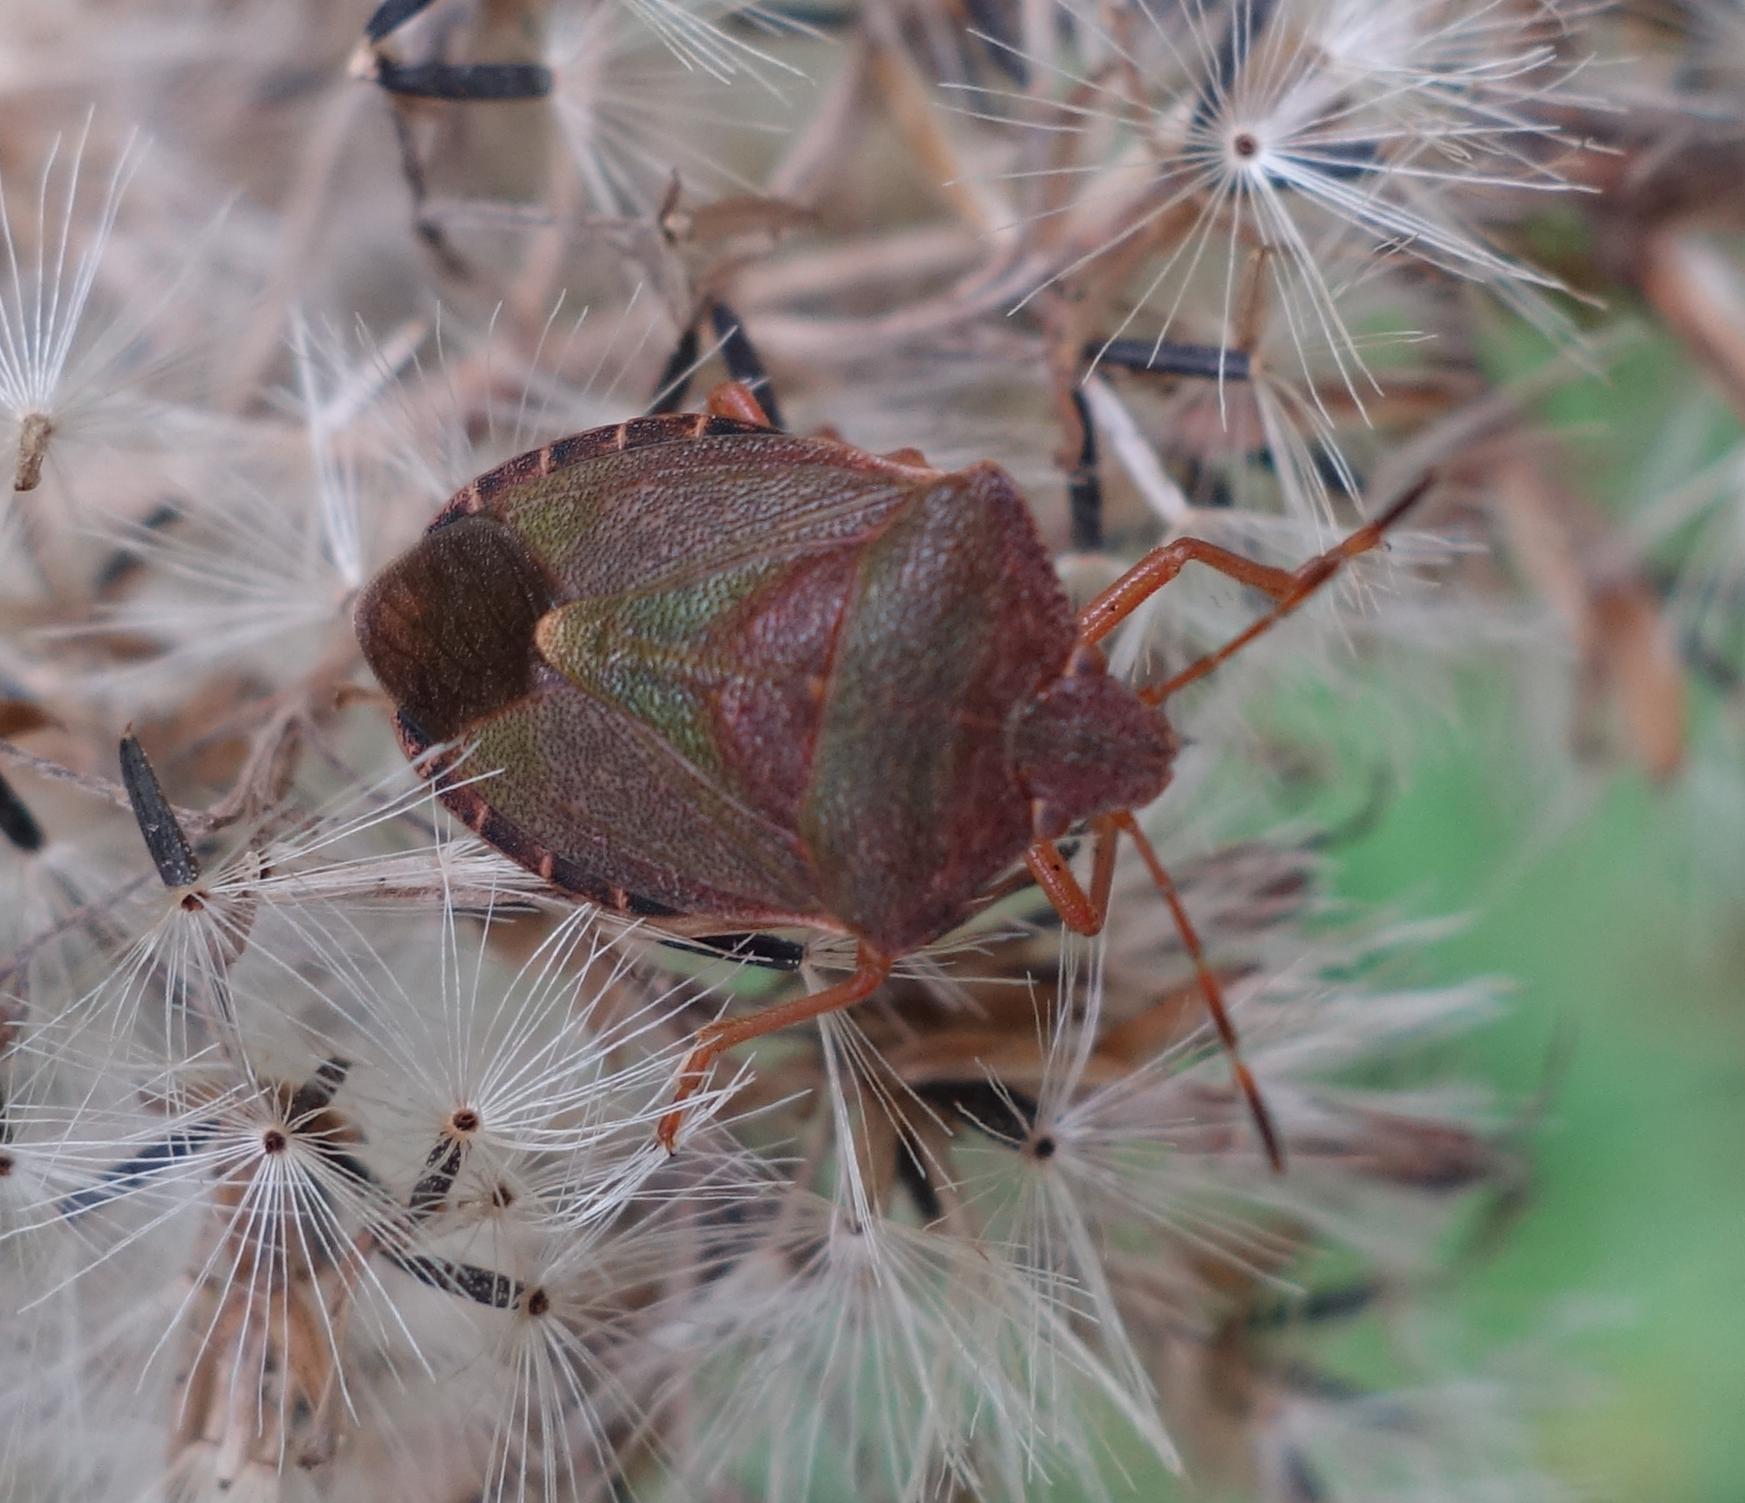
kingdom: Animalia
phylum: Arthropoda
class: Insecta
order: Hemiptera
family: Pentatomidae
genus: Palomena
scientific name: Palomena prasina
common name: Green shieldbug
